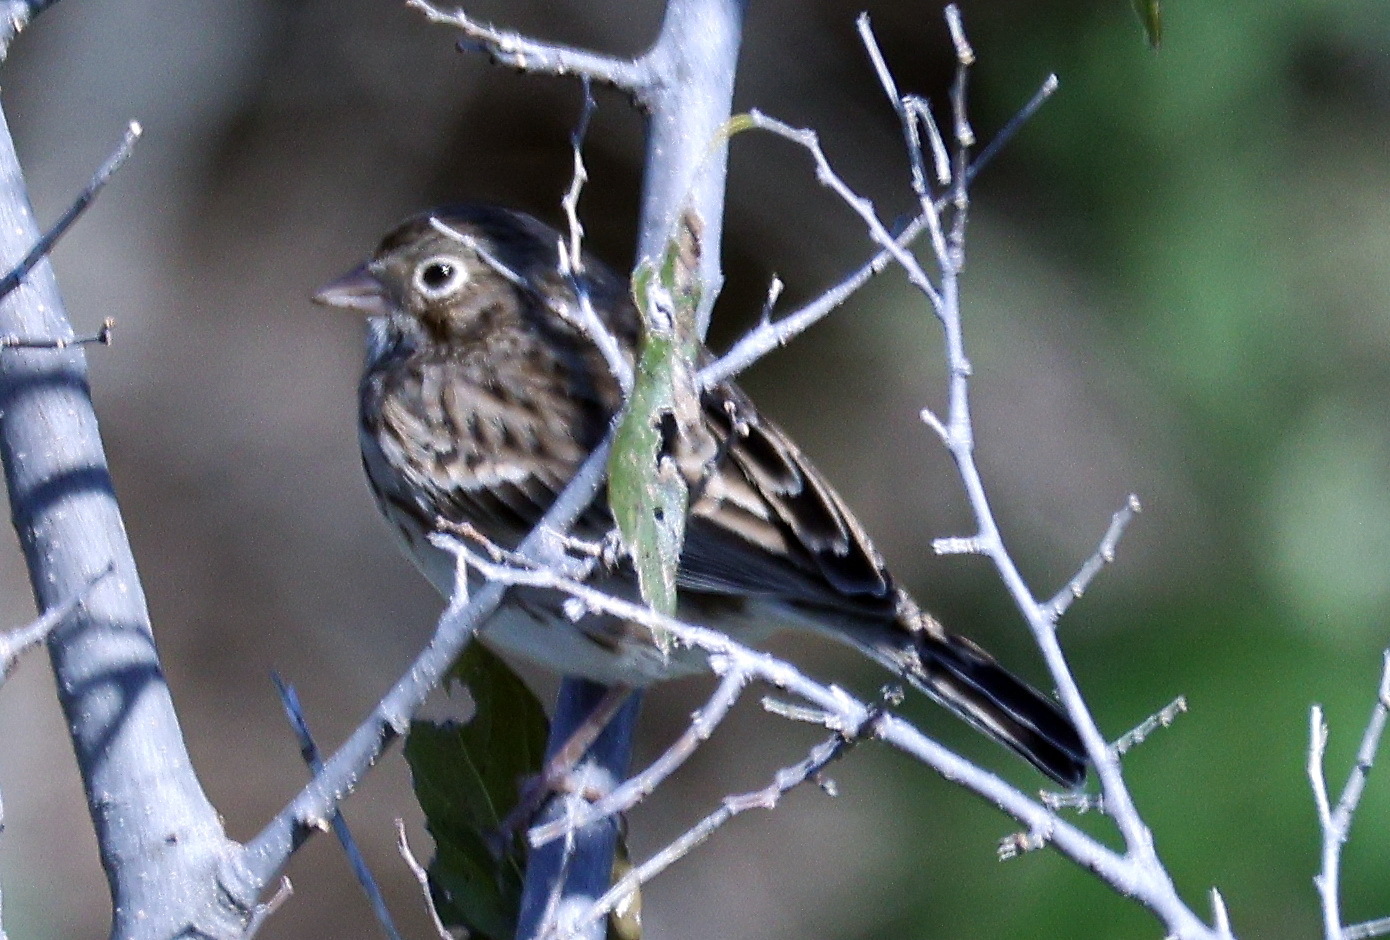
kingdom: Animalia
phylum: Chordata
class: Aves
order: Passeriformes
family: Passerellidae
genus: Pooecetes
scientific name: Pooecetes gramineus
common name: Vesper sparrow
